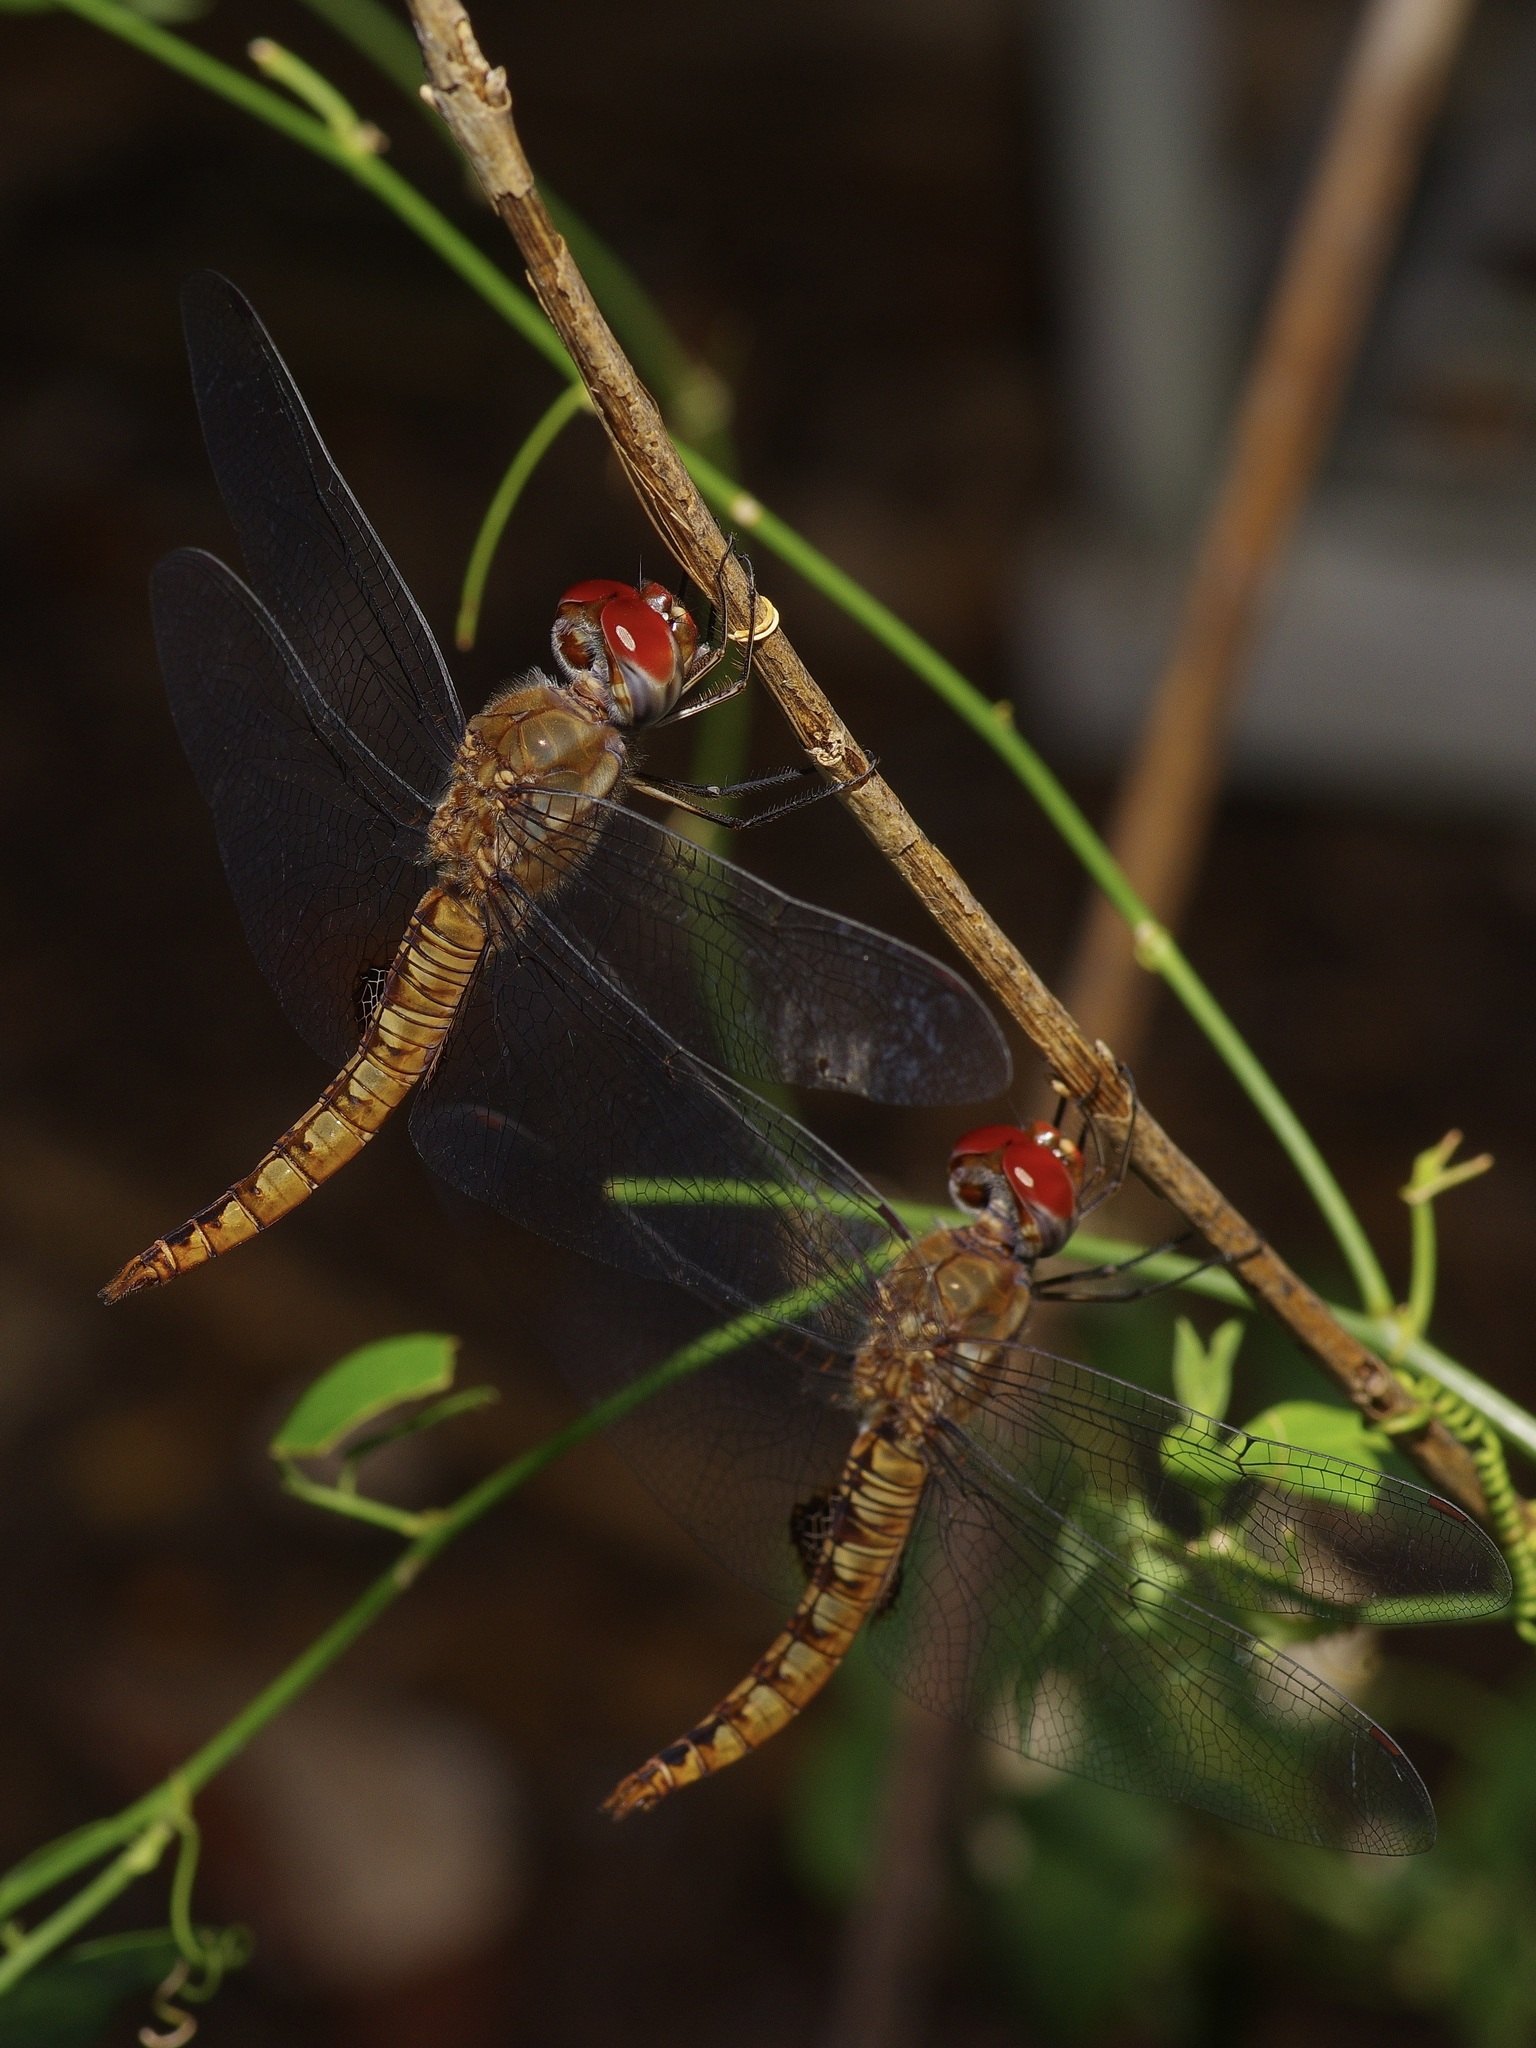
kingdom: Animalia
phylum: Arthropoda
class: Insecta
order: Odonata
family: Libellulidae
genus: Pantala
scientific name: Pantala hymenaea
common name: Spot-winged glider
